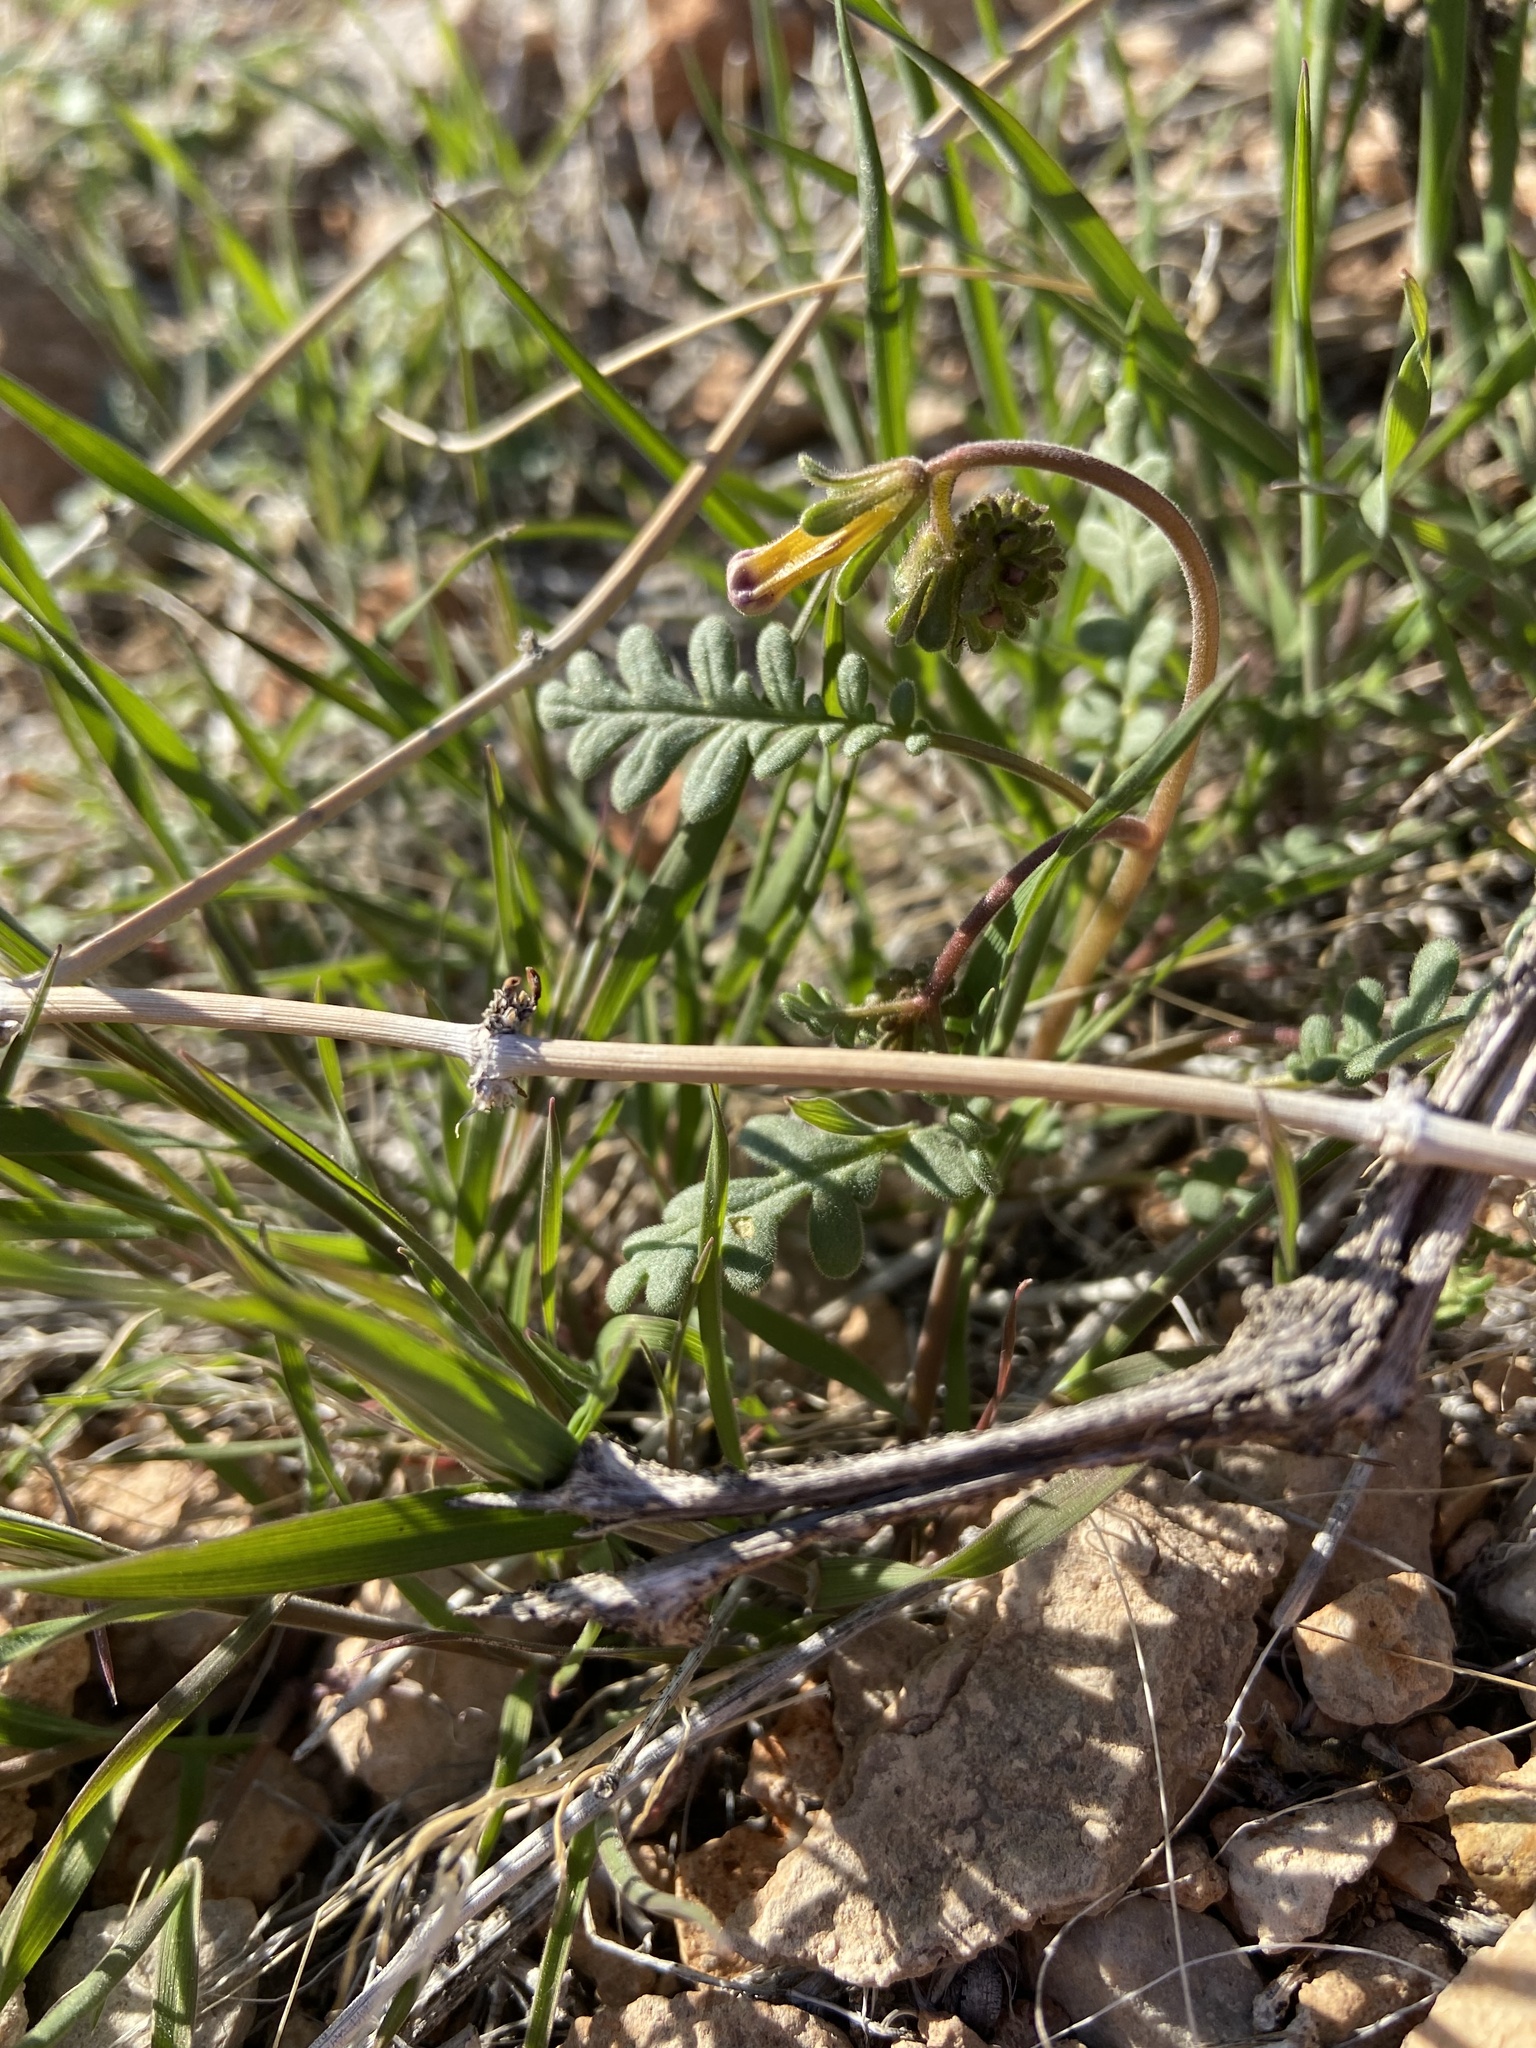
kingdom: Plantae
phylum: Tracheophyta
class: Magnoliopsida
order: Boraginales
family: Hydrophyllaceae
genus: Phacelia
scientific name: Phacelia fremontii
